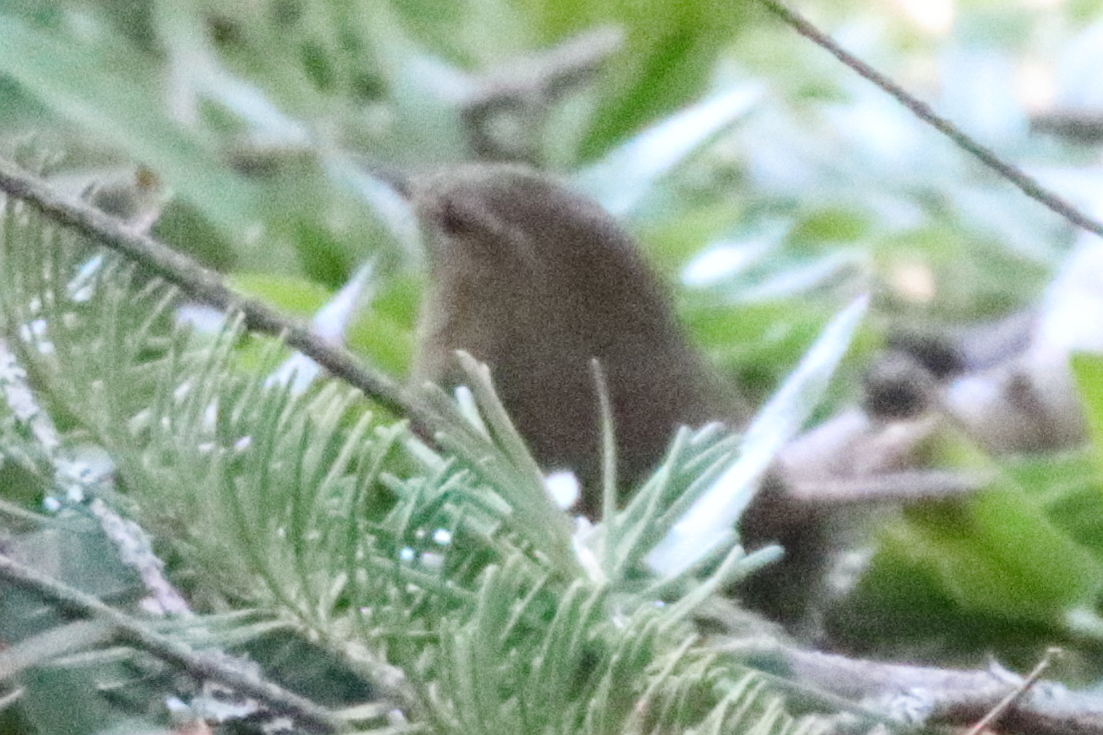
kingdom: Animalia
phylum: Chordata
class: Aves
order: Passeriformes
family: Troglodytidae
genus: Troglodytes
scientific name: Troglodytes pacificus
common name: Pacific wren
